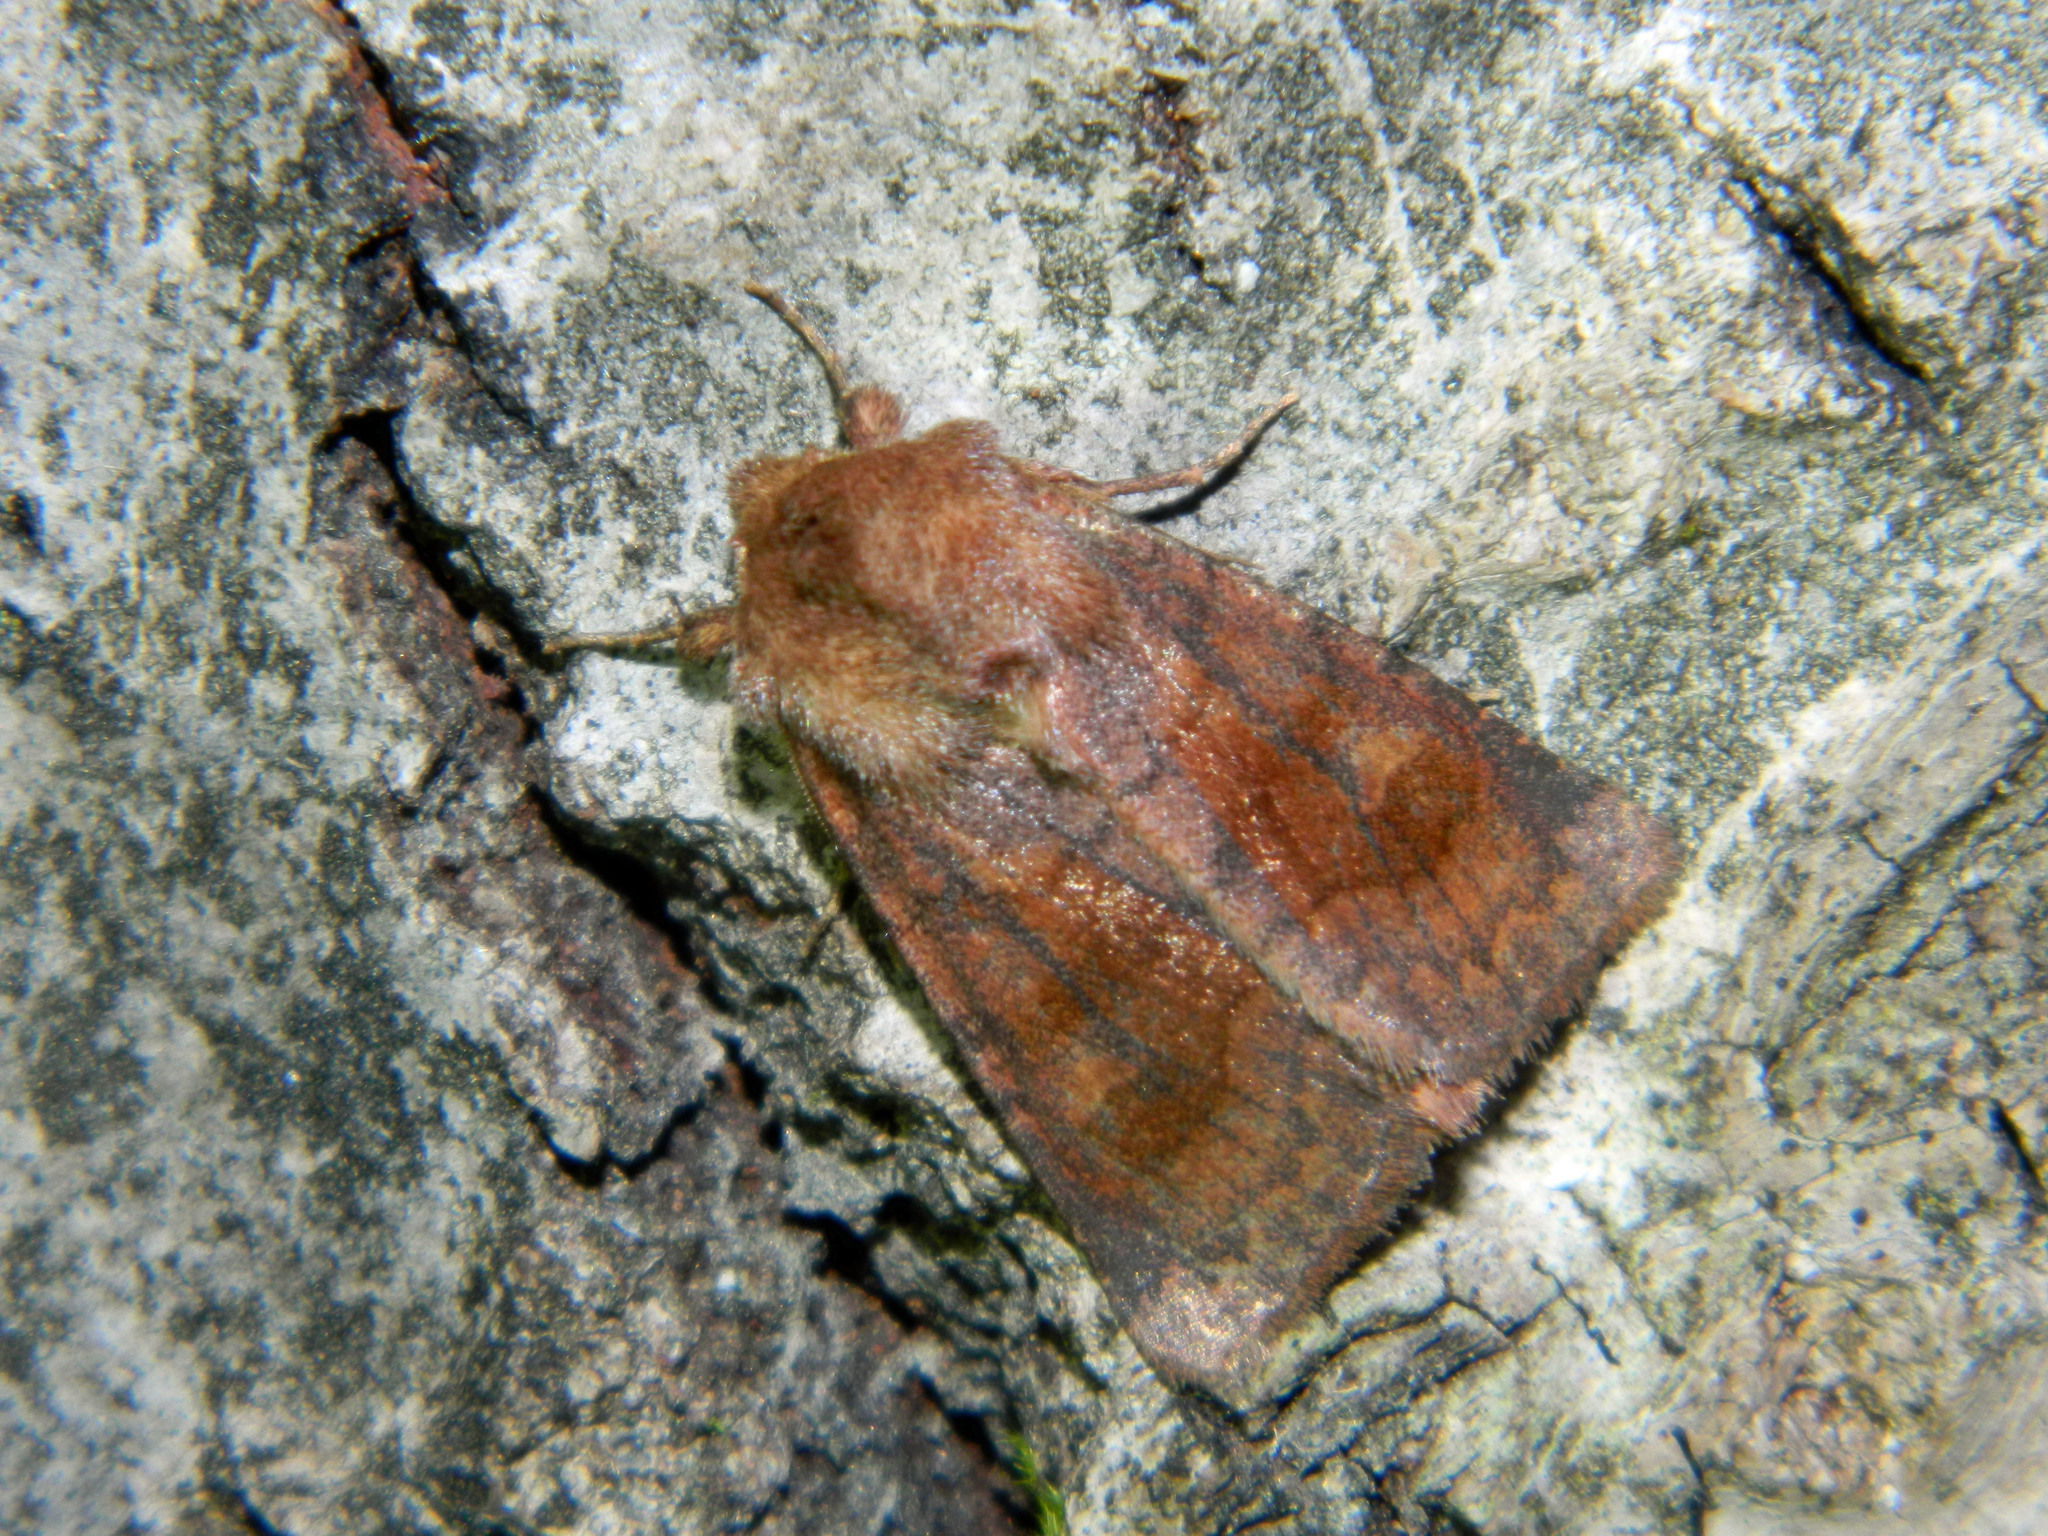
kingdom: Animalia
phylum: Arthropoda
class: Insecta
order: Lepidoptera
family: Noctuidae
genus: Nephelodes
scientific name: Nephelodes minians
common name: Bronzed cutworm
